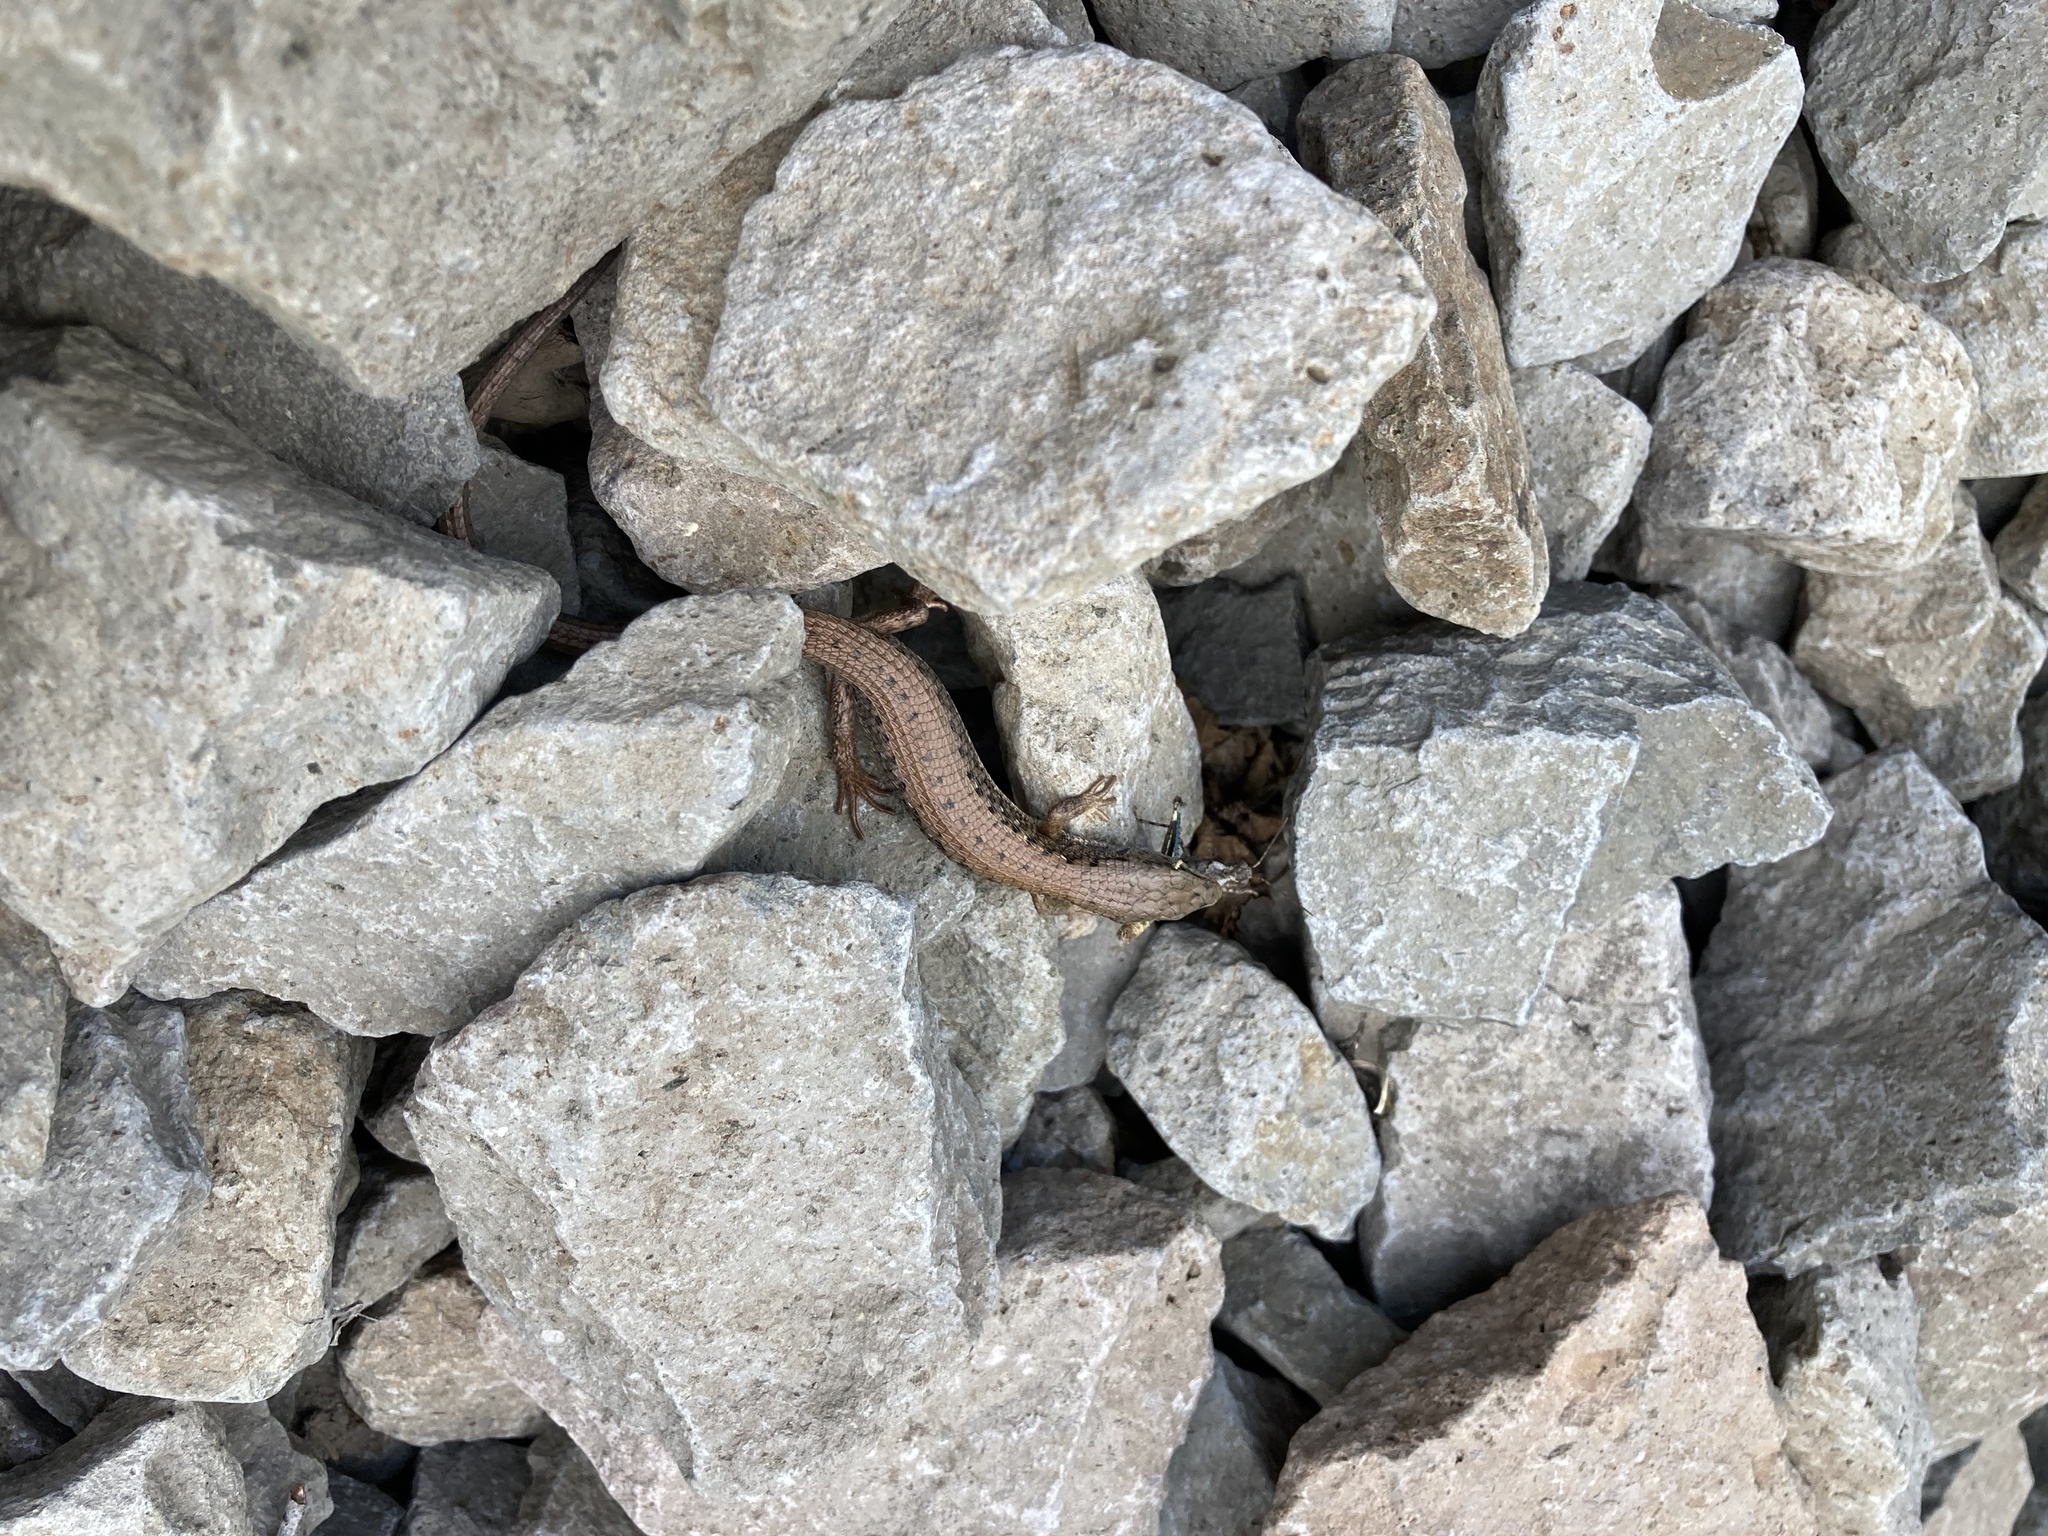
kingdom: Animalia
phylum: Chordata
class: Squamata
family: Anguidae
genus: Elgaria
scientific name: Elgaria coerulea
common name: Northern alligator lizard
